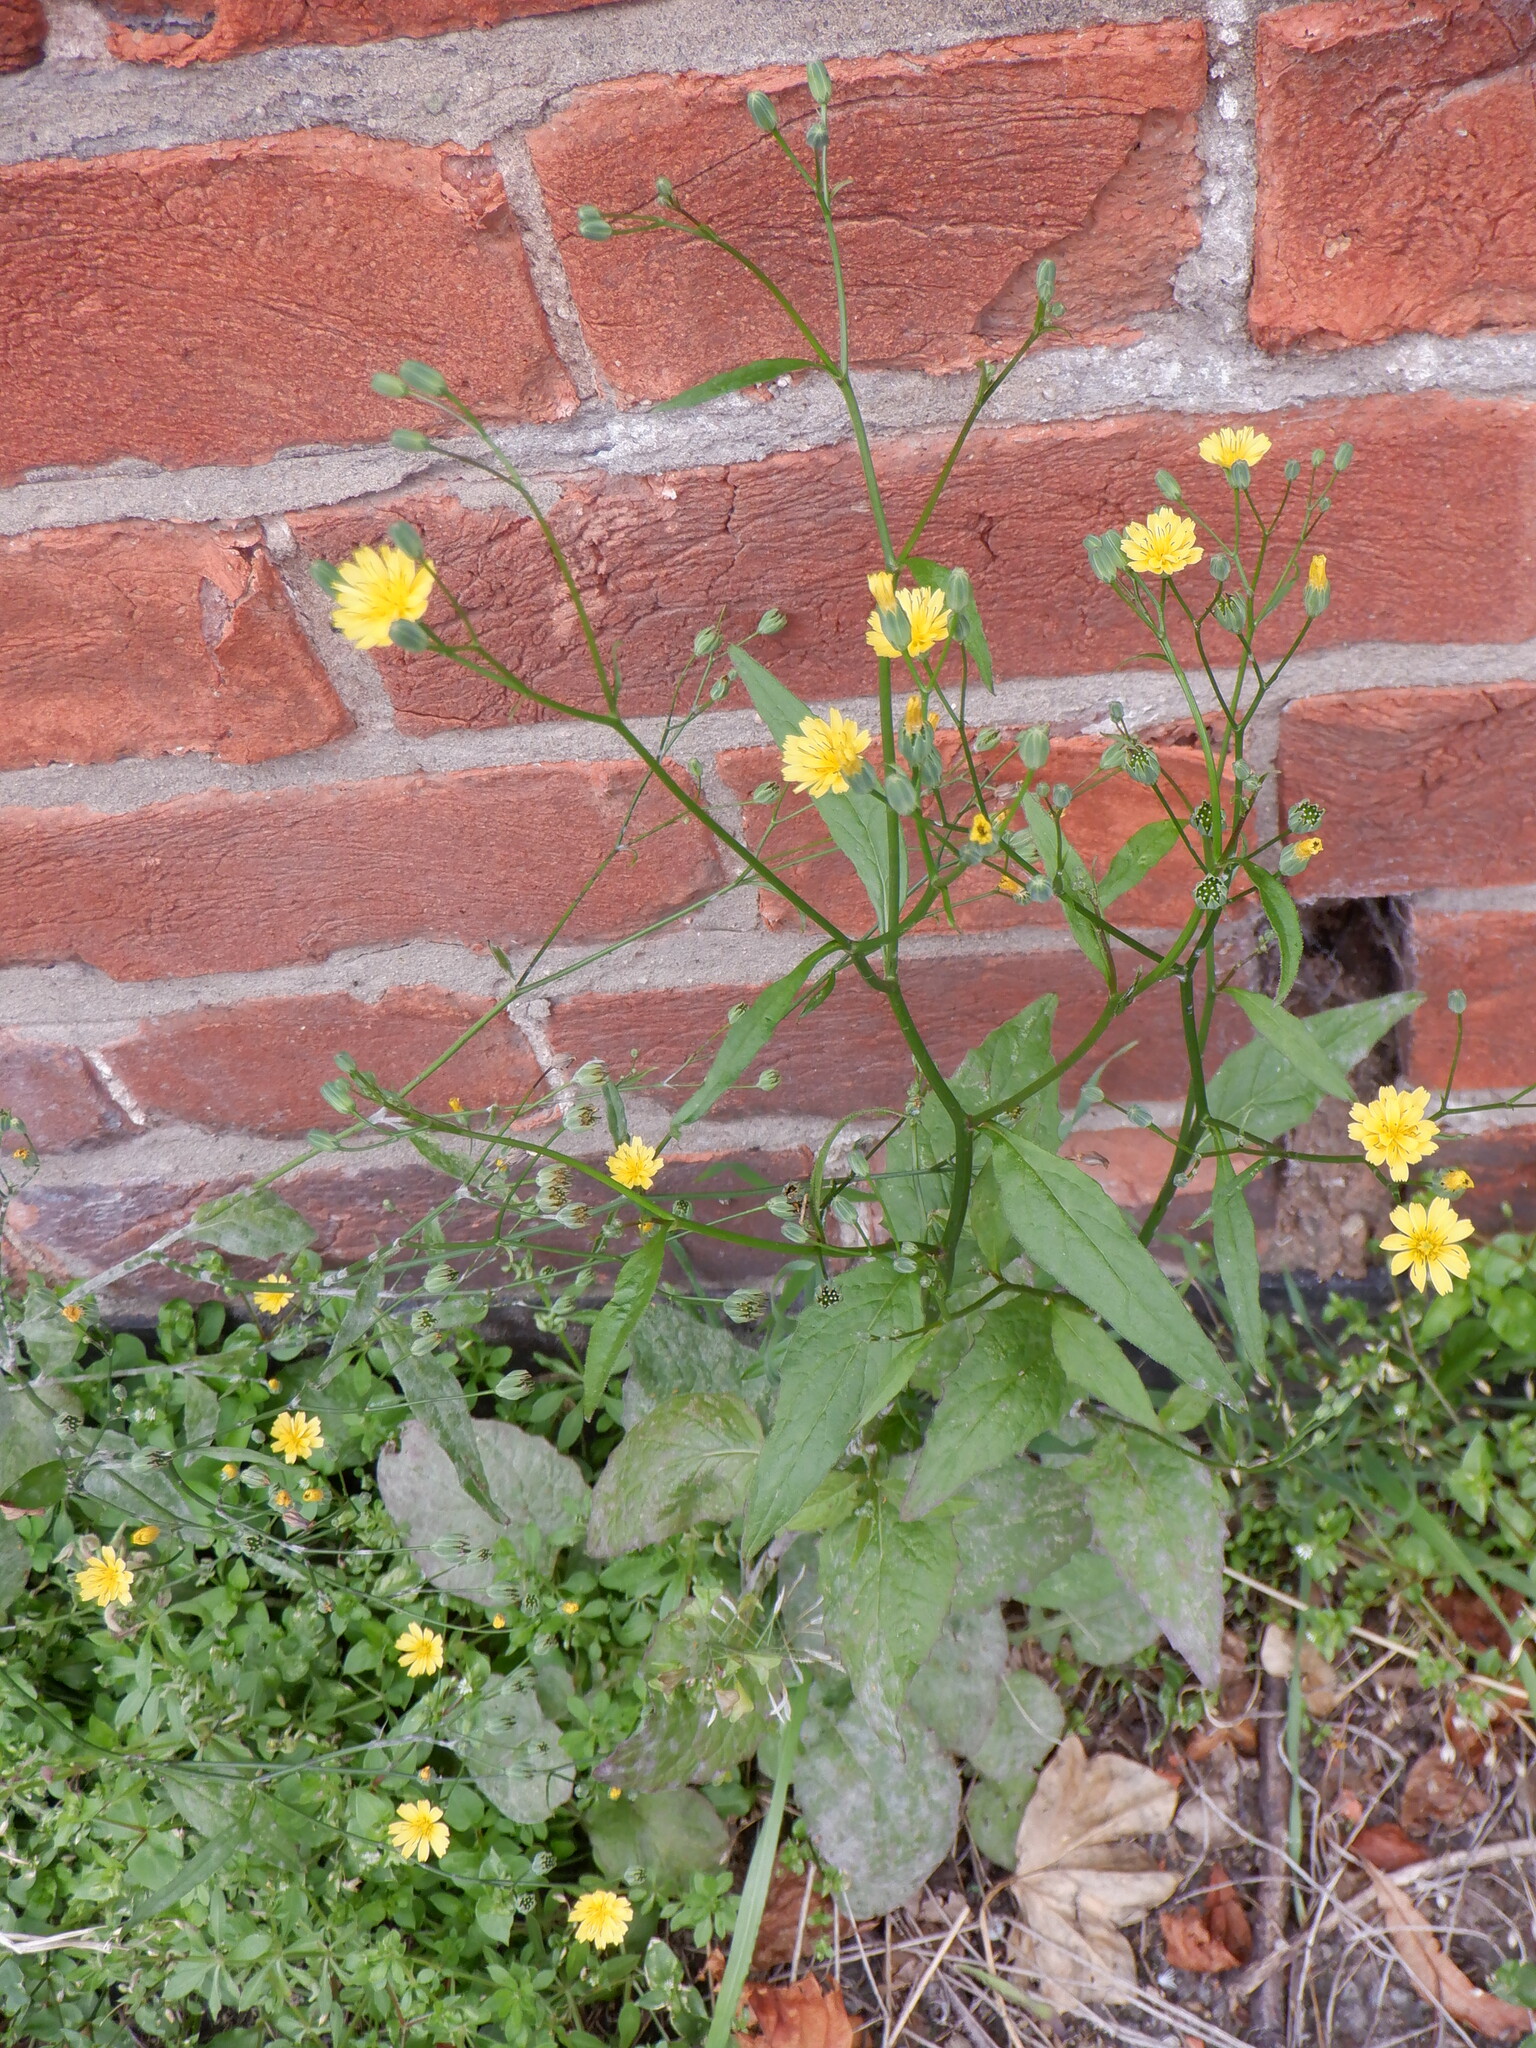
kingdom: Plantae
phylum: Tracheophyta
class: Magnoliopsida
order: Asterales
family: Asteraceae
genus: Lapsana
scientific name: Lapsana communis
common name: Nipplewort
